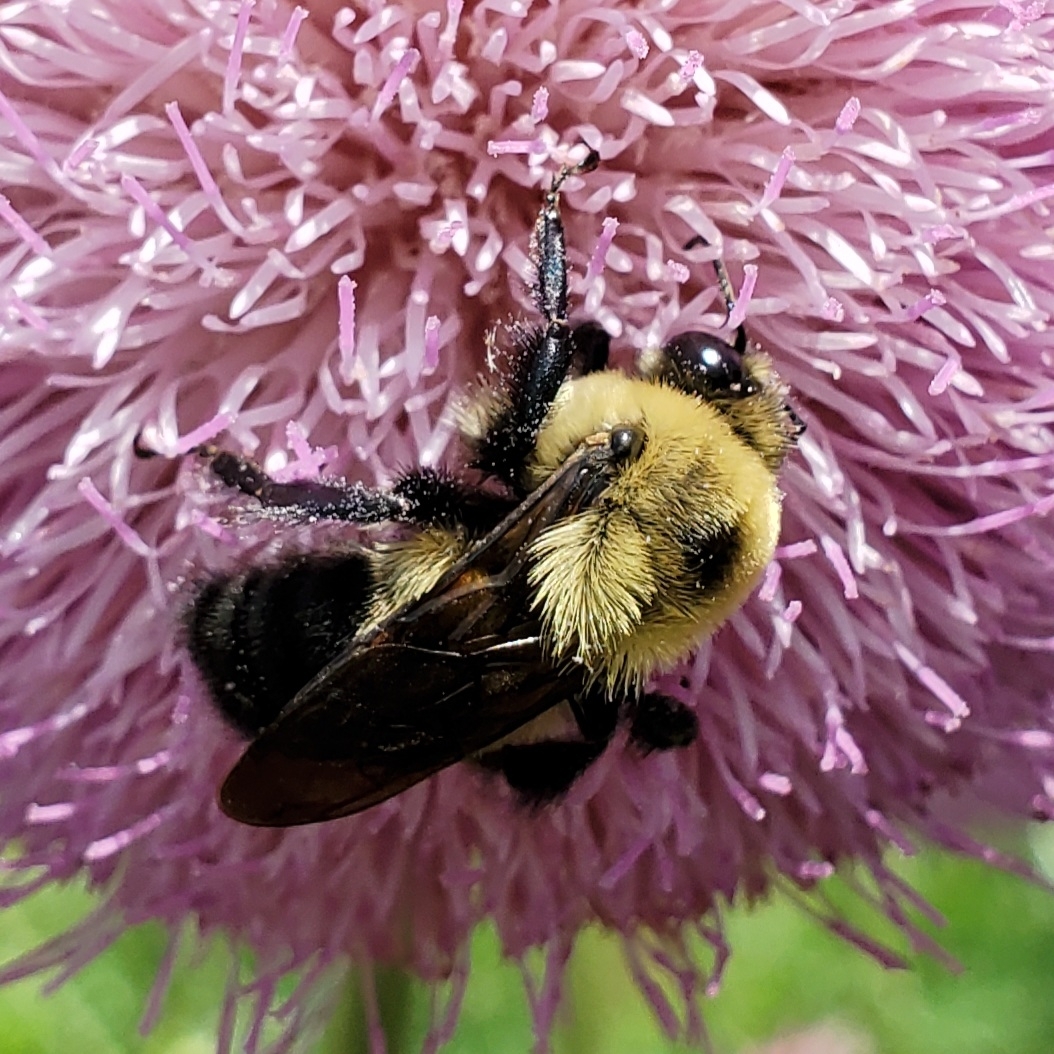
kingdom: Animalia
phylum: Arthropoda
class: Insecta
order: Hymenoptera
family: Apidae
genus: Bombus
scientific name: Bombus griseocollis
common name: Brown-belted bumble bee
